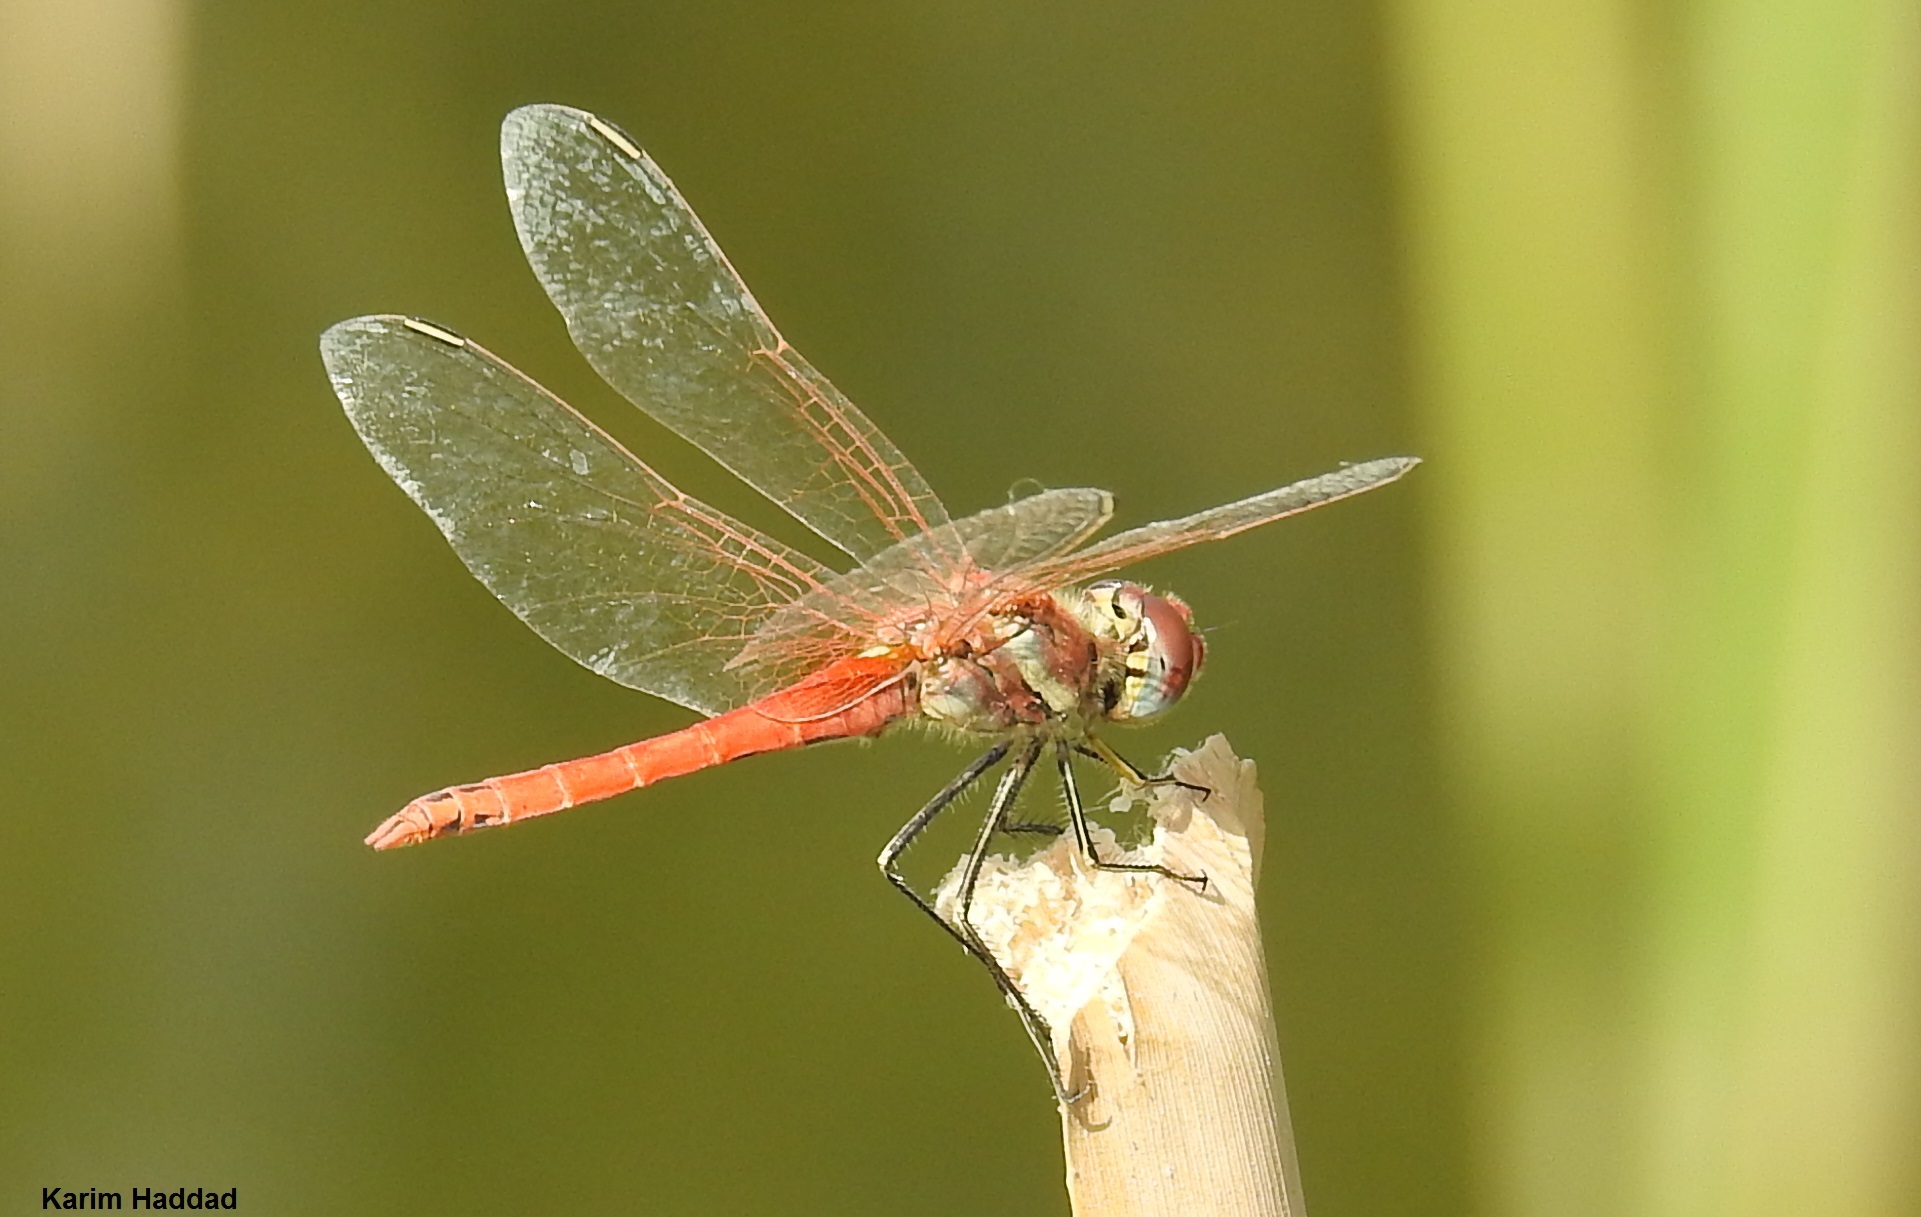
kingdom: Animalia
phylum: Arthropoda
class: Insecta
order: Odonata
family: Libellulidae
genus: Sympetrum
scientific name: Sympetrum fonscolombii
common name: Red-veined darter
